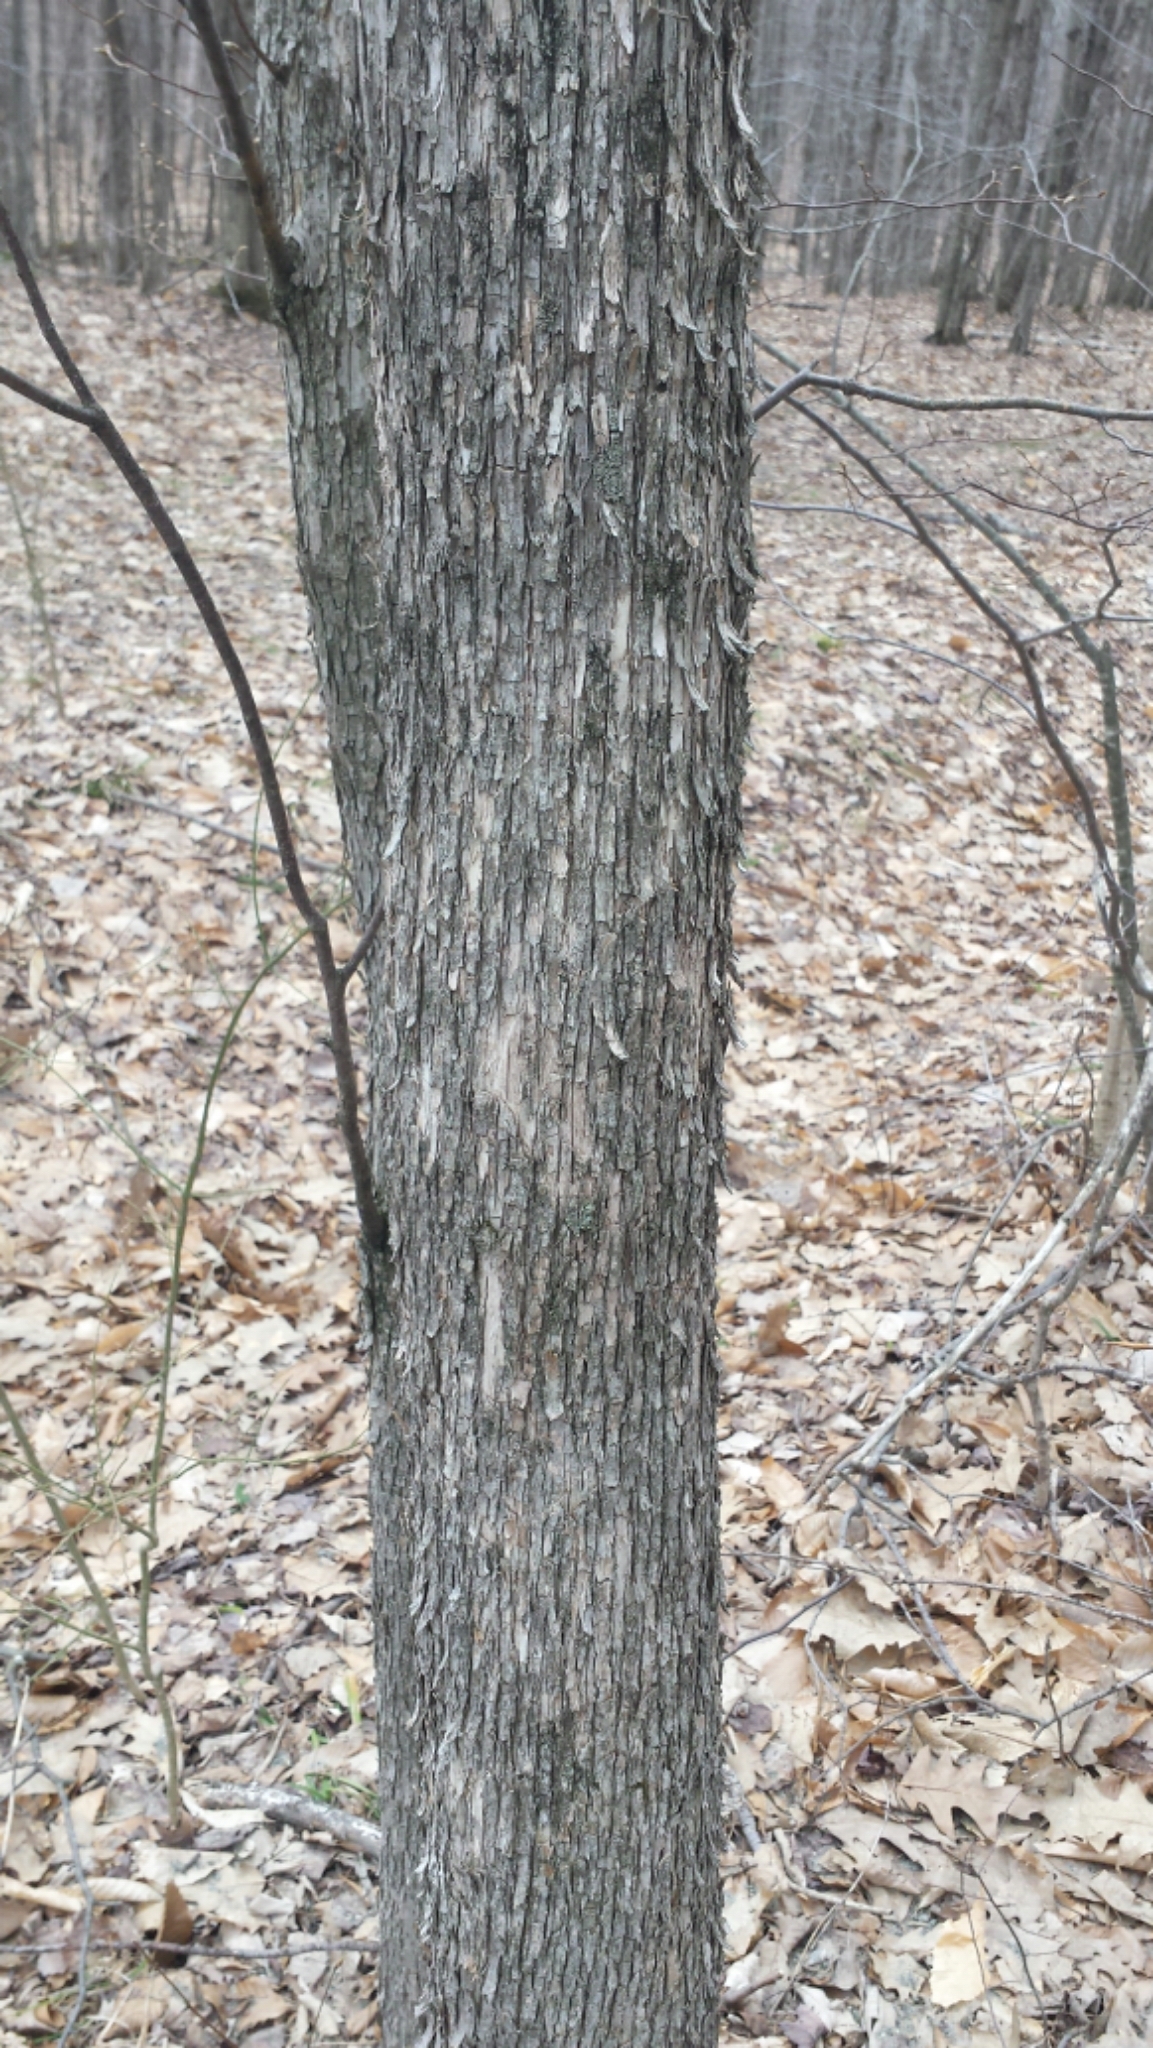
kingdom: Plantae
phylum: Tracheophyta
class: Magnoliopsida
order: Fagales
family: Betulaceae
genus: Ostrya
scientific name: Ostrya virginiana
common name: Ironwood
